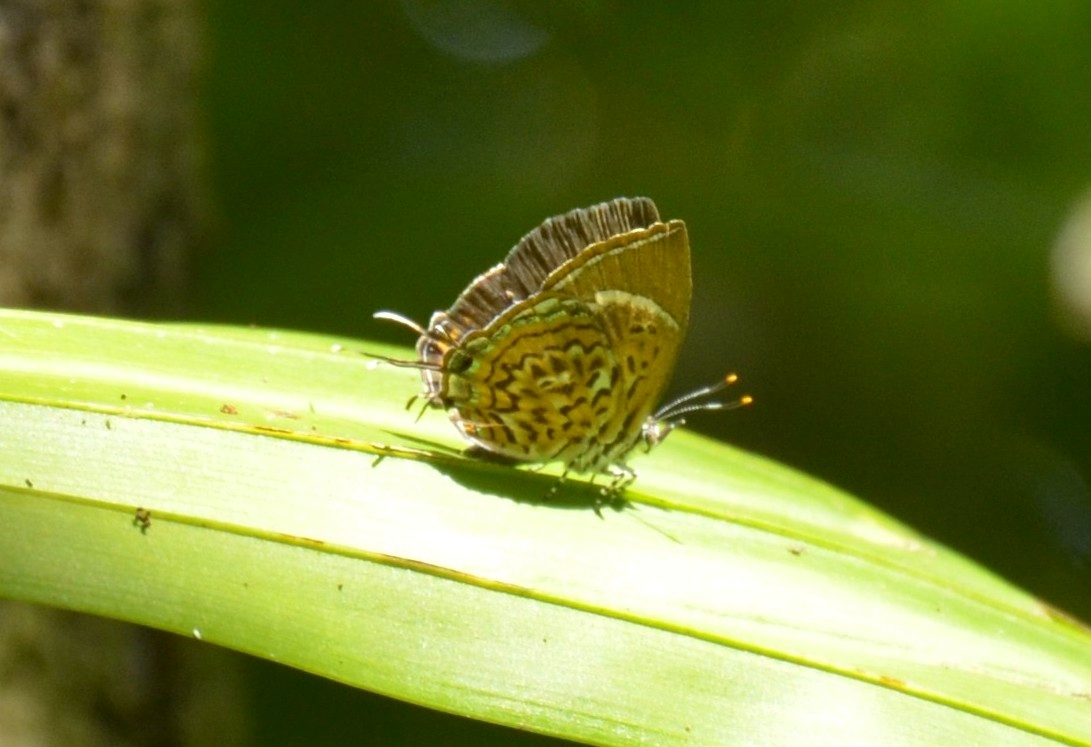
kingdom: Animalia
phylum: Arthropoda
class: Insecta
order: Lepidoptera
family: Lycaenidae
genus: Rathinda
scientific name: Rathinda amor
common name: Monkey puzzle
